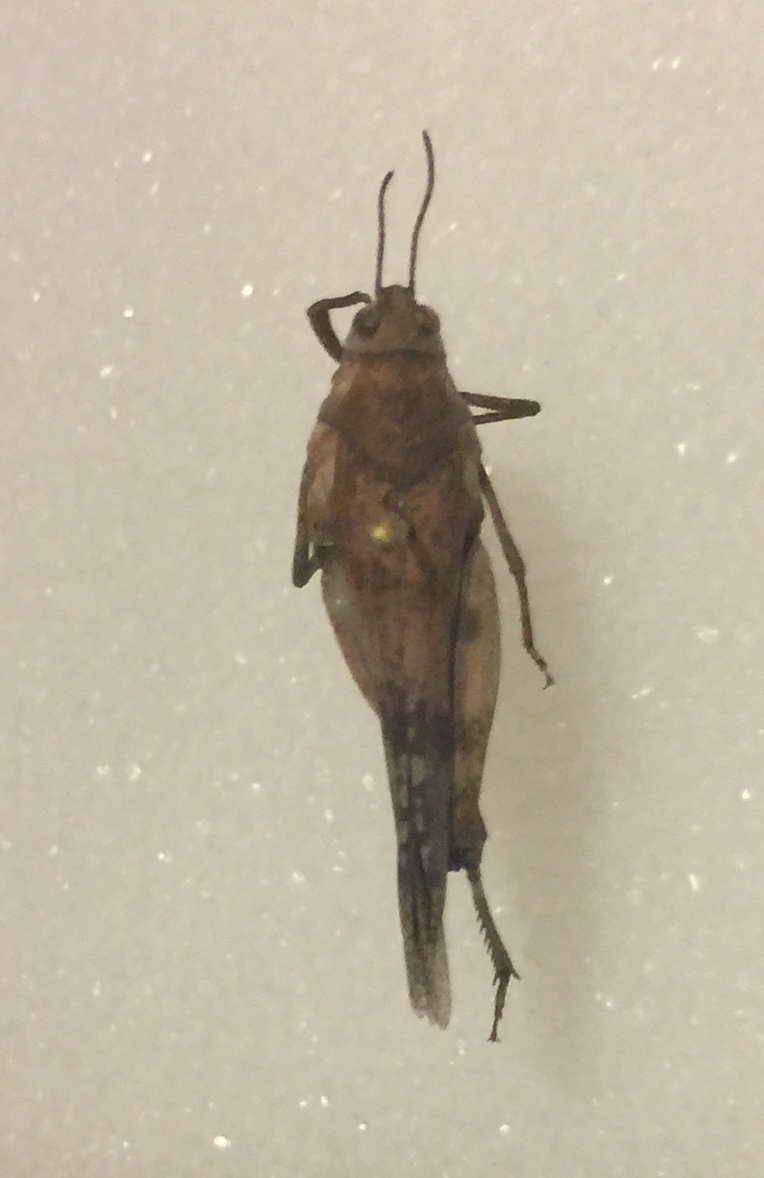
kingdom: Animalia
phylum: Arthropoda
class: Insecta
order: Orthoptera
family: Acrididae
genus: Trimerotropis
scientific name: Trimerotropis pallidipennis
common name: Pallid-winged grasshopper
